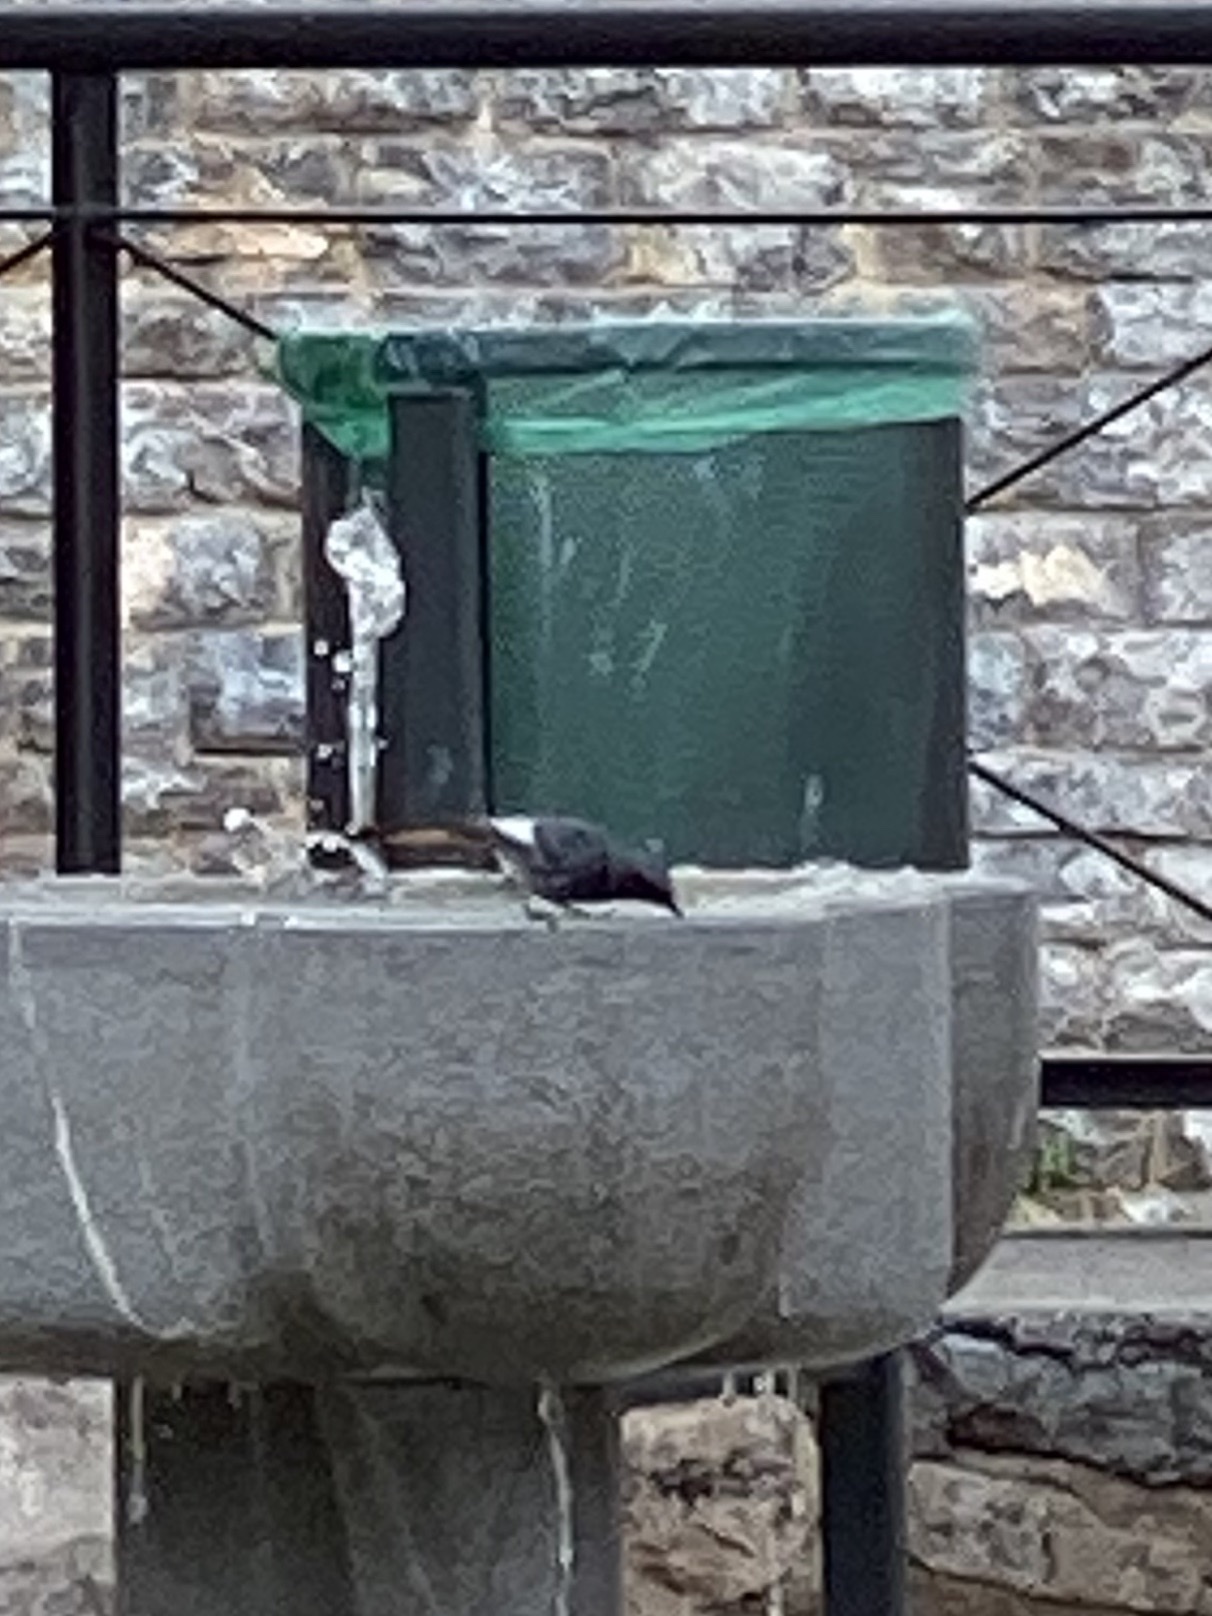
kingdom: Animalia
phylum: Chordata
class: Aves
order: Passeriformes
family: Muscicapidae
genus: Phoenicurus
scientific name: Phoenicurus ochruros
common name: Black redstart
